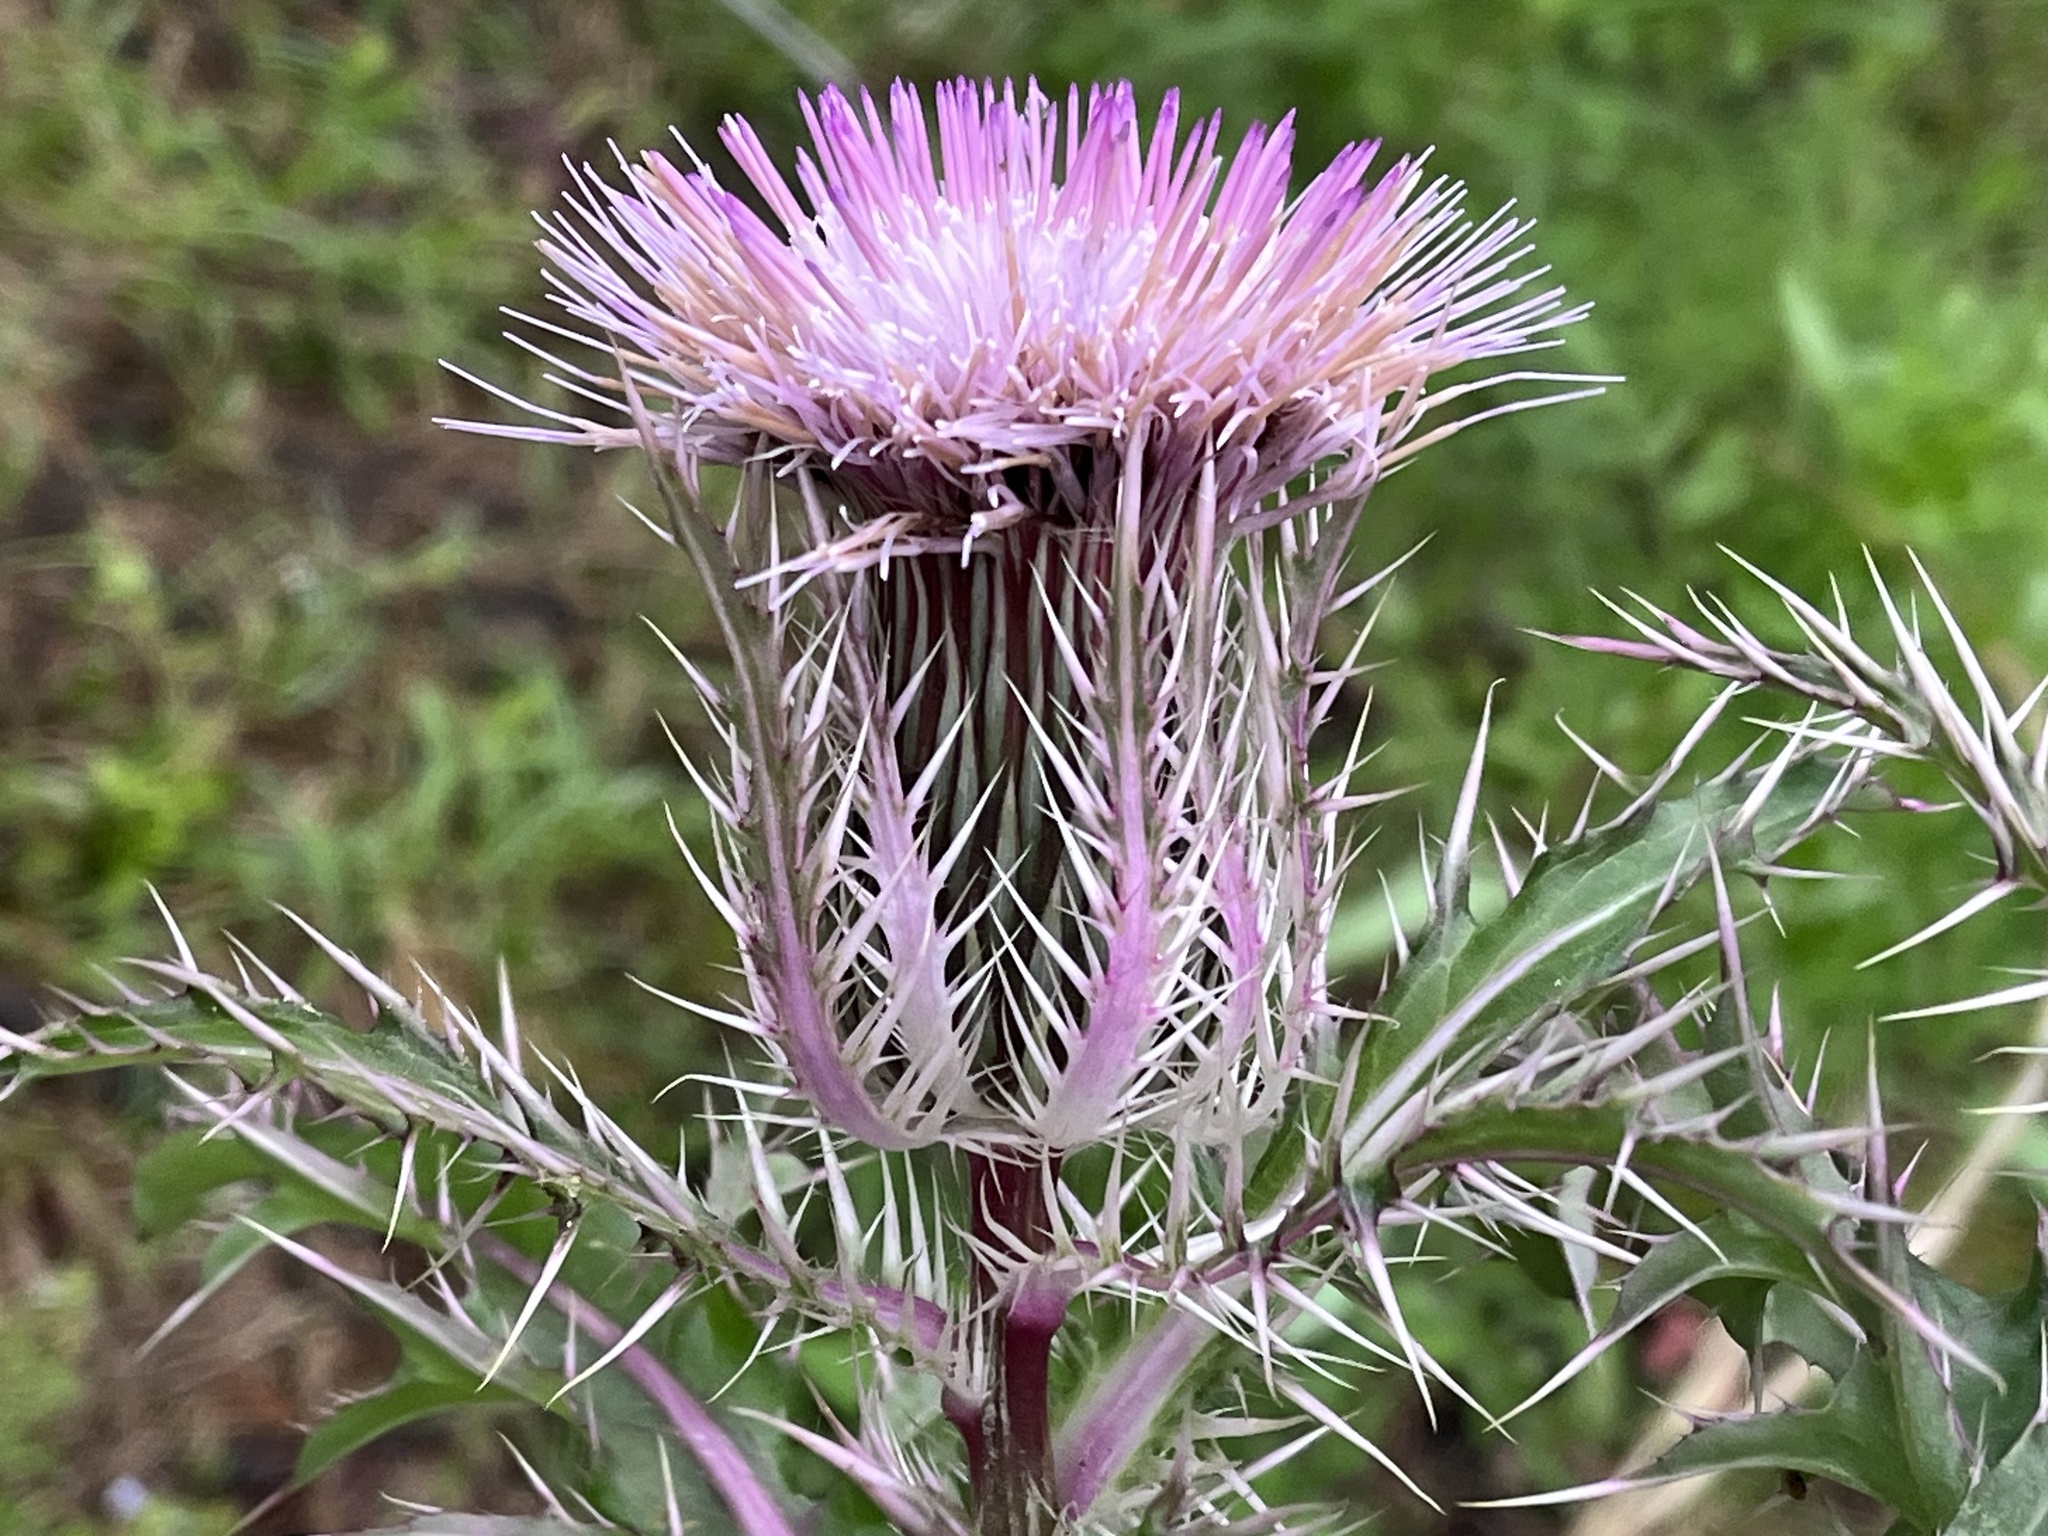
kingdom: Plantae
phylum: Tracheophyta
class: Magnoliopsida
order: Asterales
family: Asteraceae
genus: Cirsium
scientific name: Cirsium horridulum
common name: Bristly thistle
